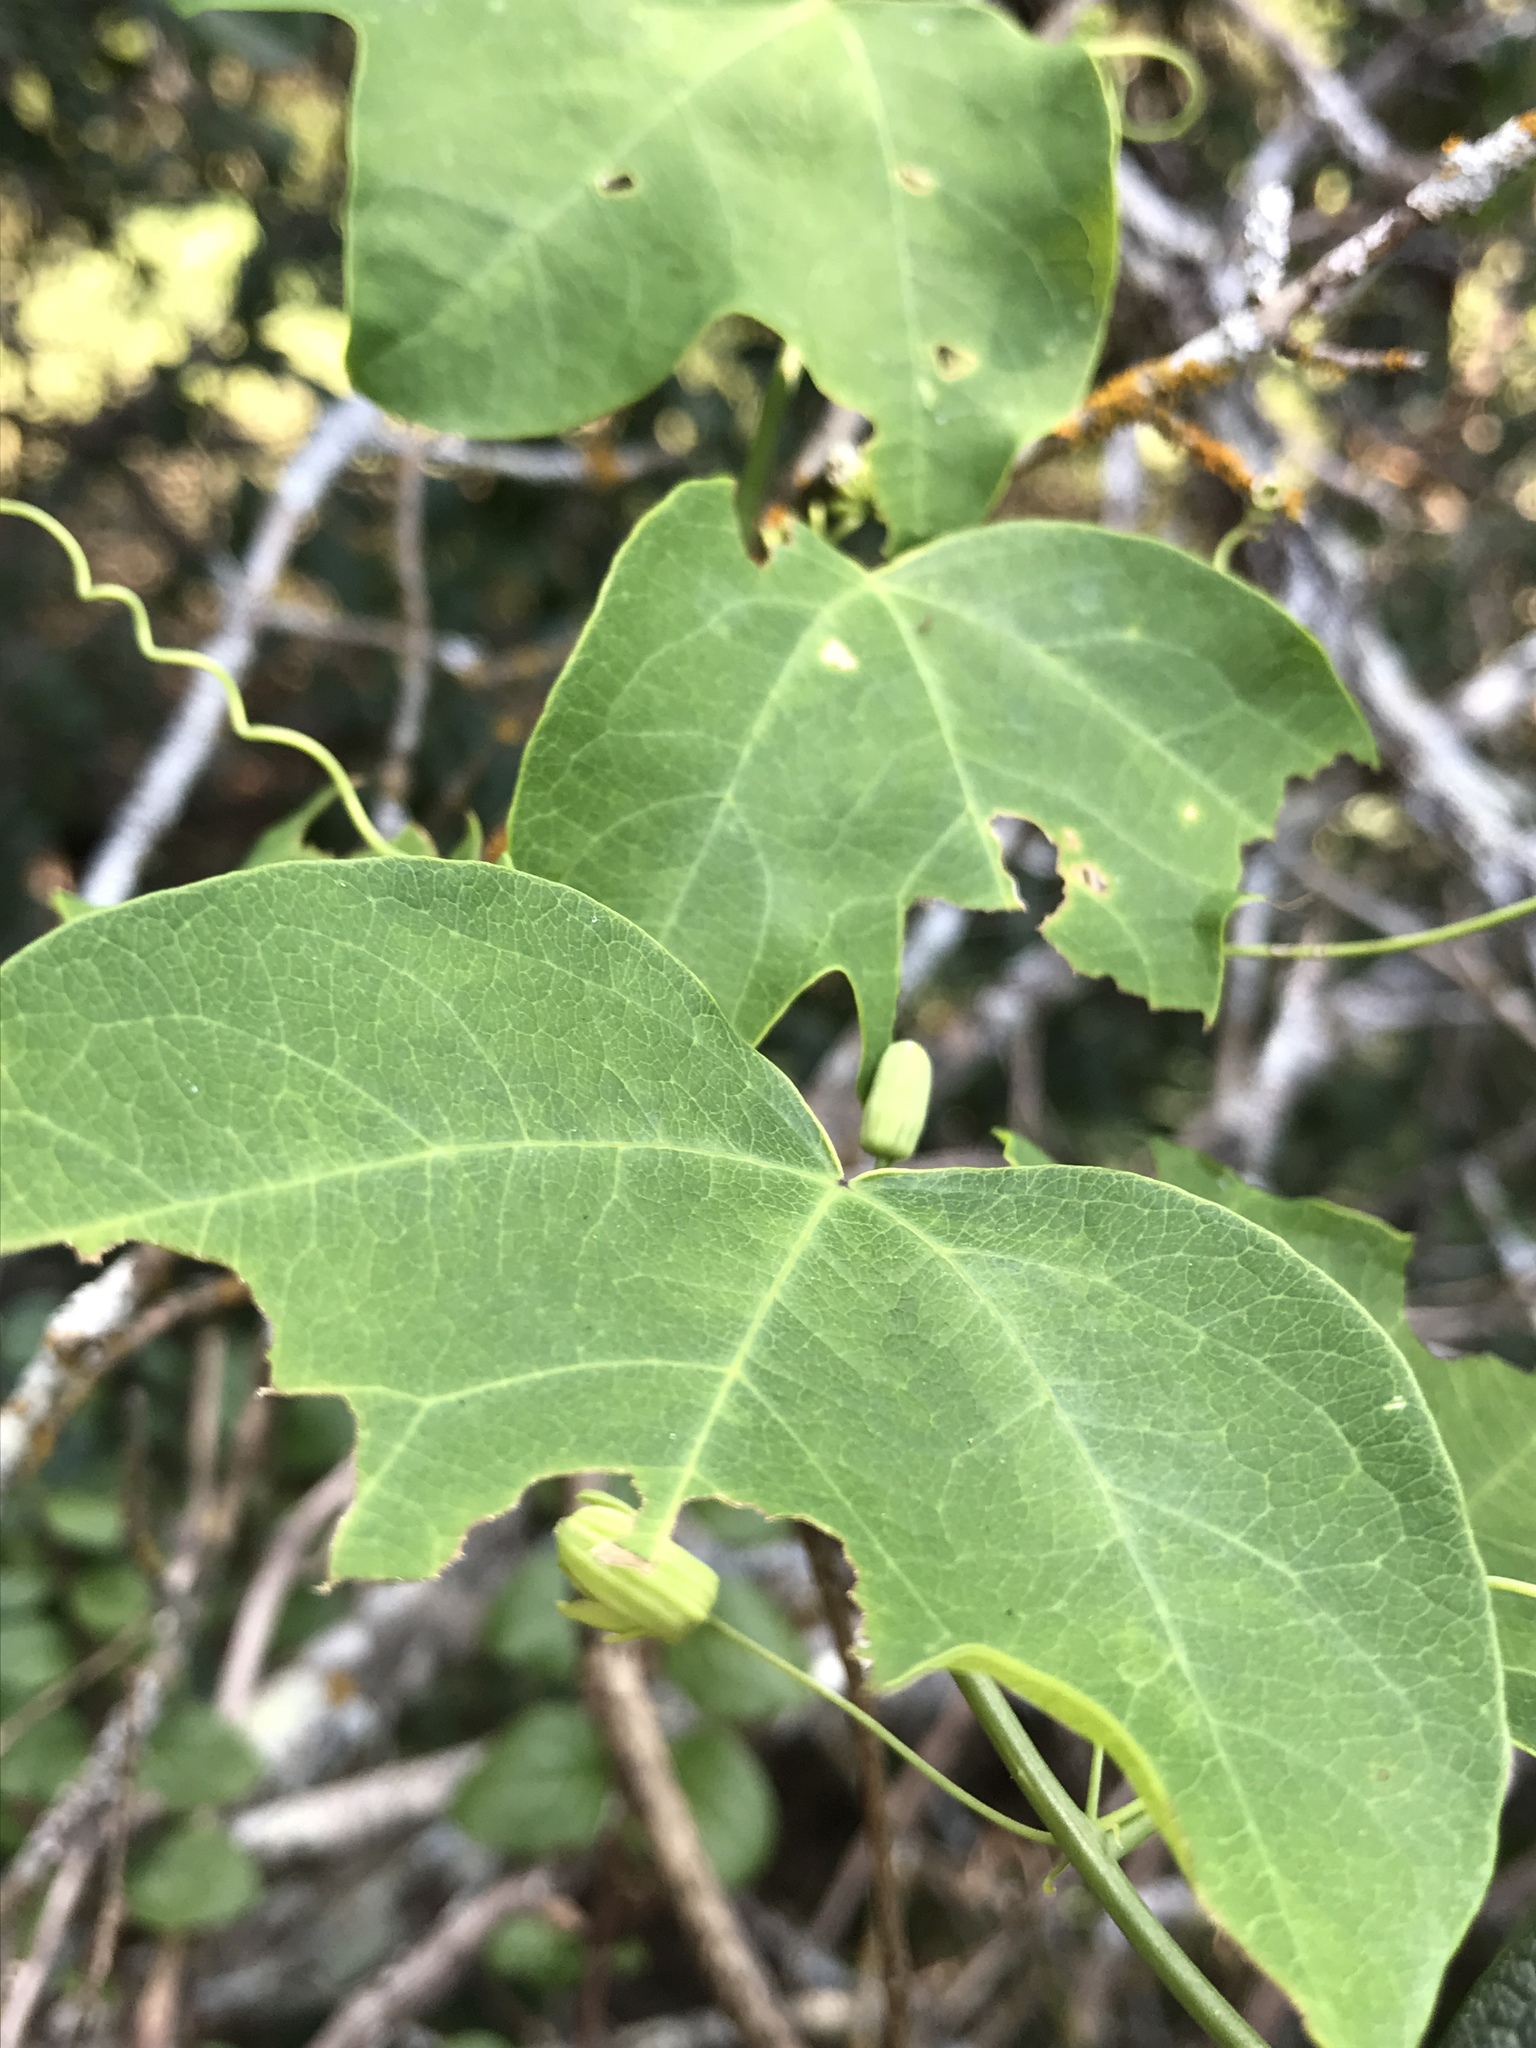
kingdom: Plantae
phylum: Tracheophyta
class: Magnoliopsida
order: Malpighiales
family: Passifloraceae
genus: Passiflora
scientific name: Passiflora lutea
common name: Yellow passionflower
